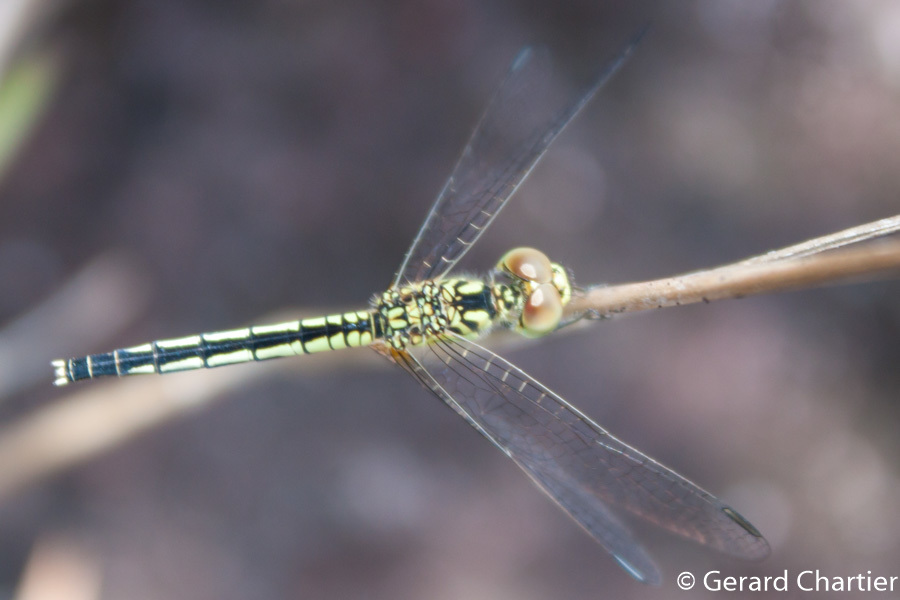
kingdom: Animalia
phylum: Arthropoda
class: Insecta
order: Odonata
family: Libellulidae
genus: Diplacodes
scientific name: Diplacodes nebulosa
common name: Black-tipped percher
